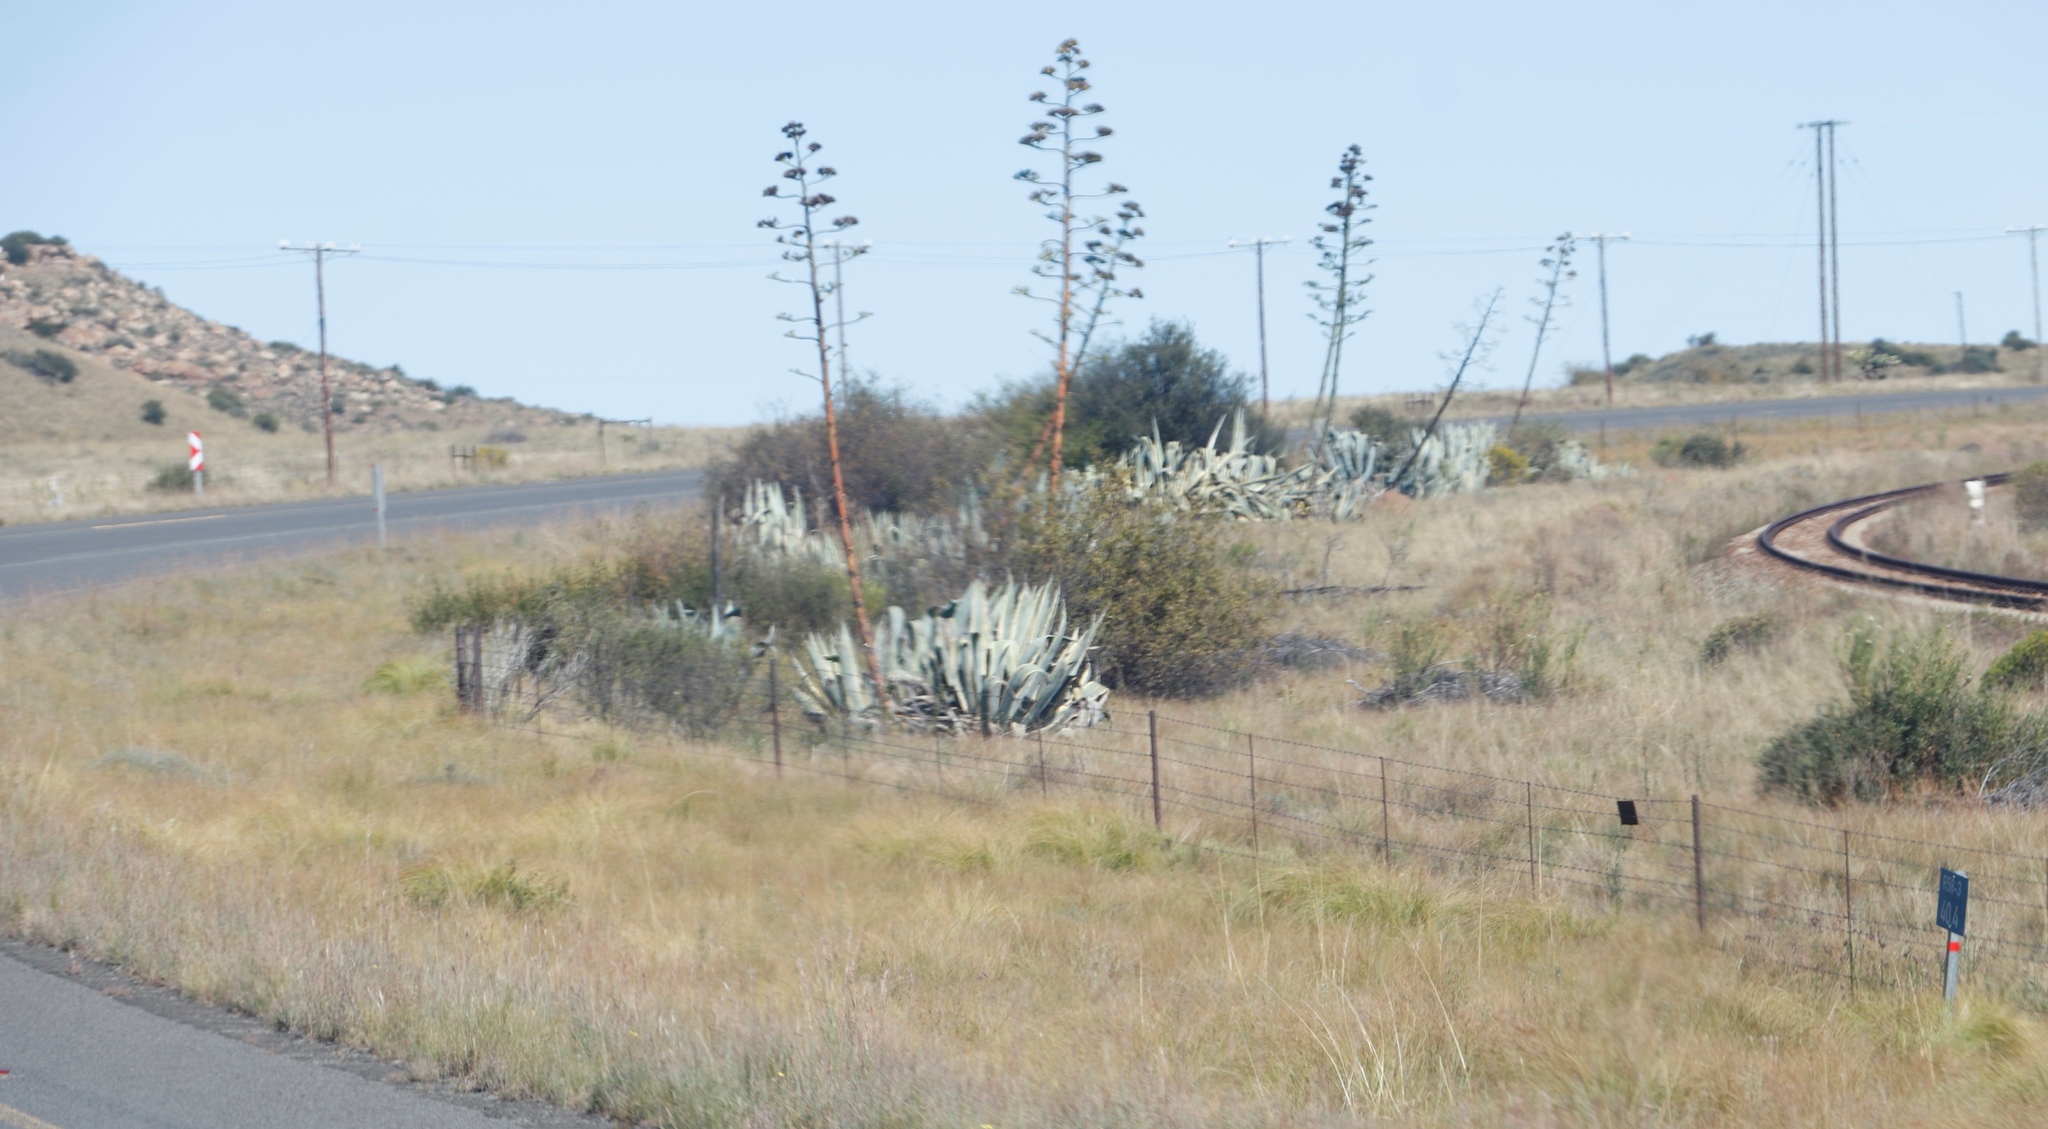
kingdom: Plantae
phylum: Tracheophyta
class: Liliopsida
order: Asparagales
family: Asparagaceae
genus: Agave
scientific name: Agave americana
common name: Centuryplant
